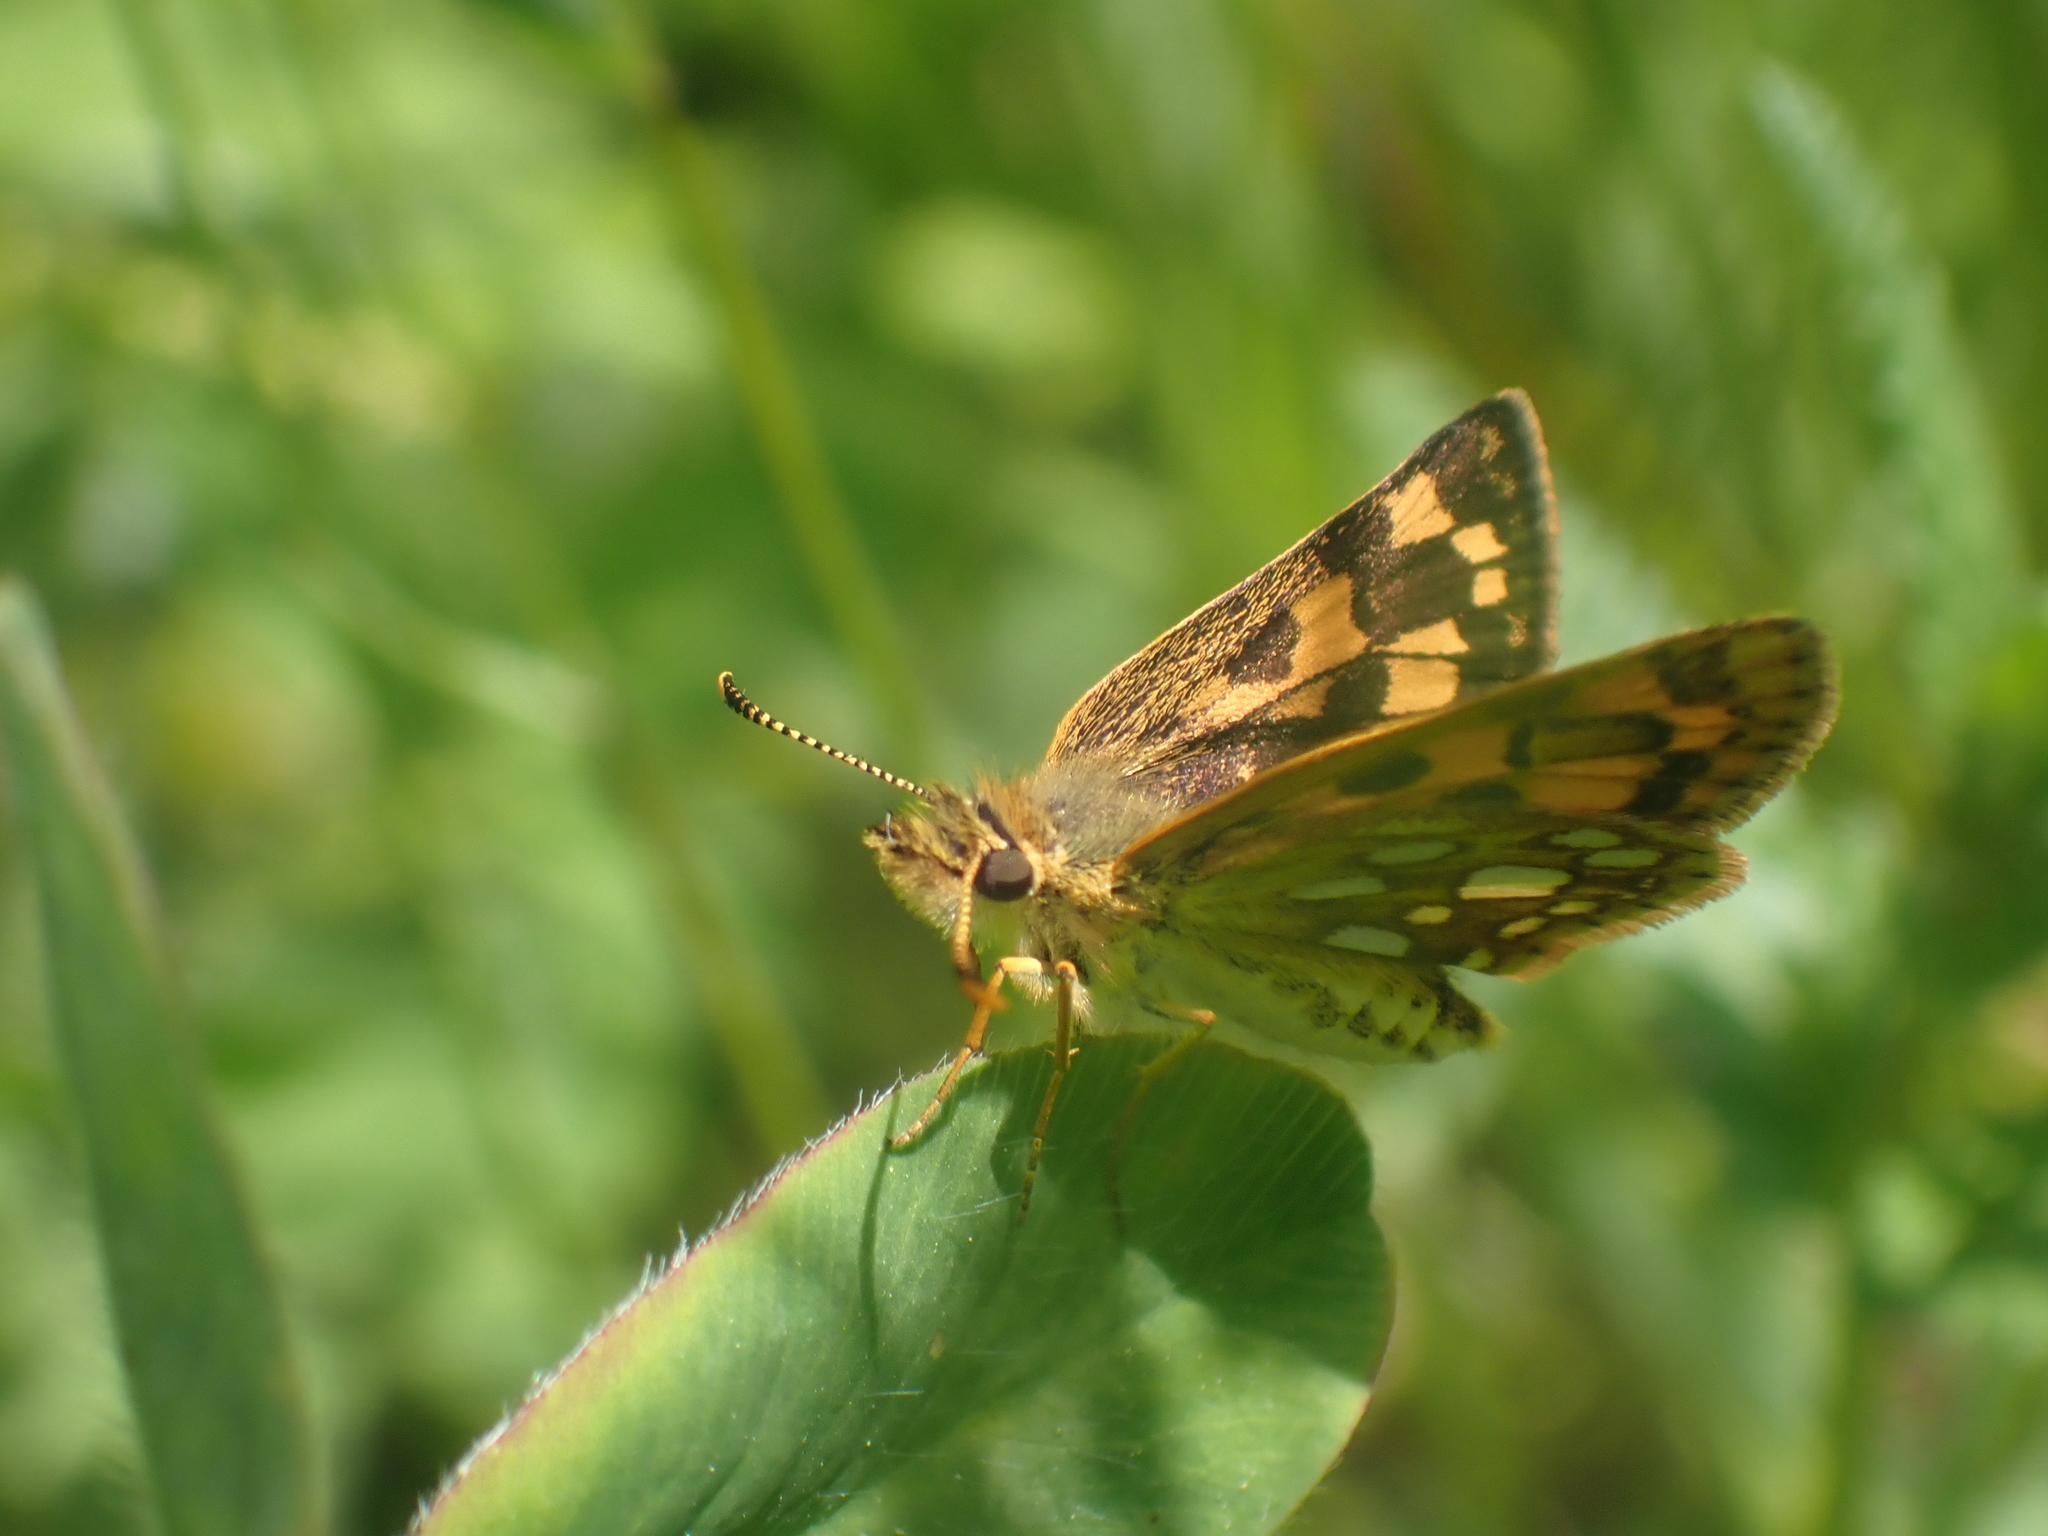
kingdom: Animalia
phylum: Arthropoda
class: Insecta
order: Lepidoptera
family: Hesperiidae
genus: Carterocephalus
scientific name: Carterocephalus mandan
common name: Arctic skipperling
